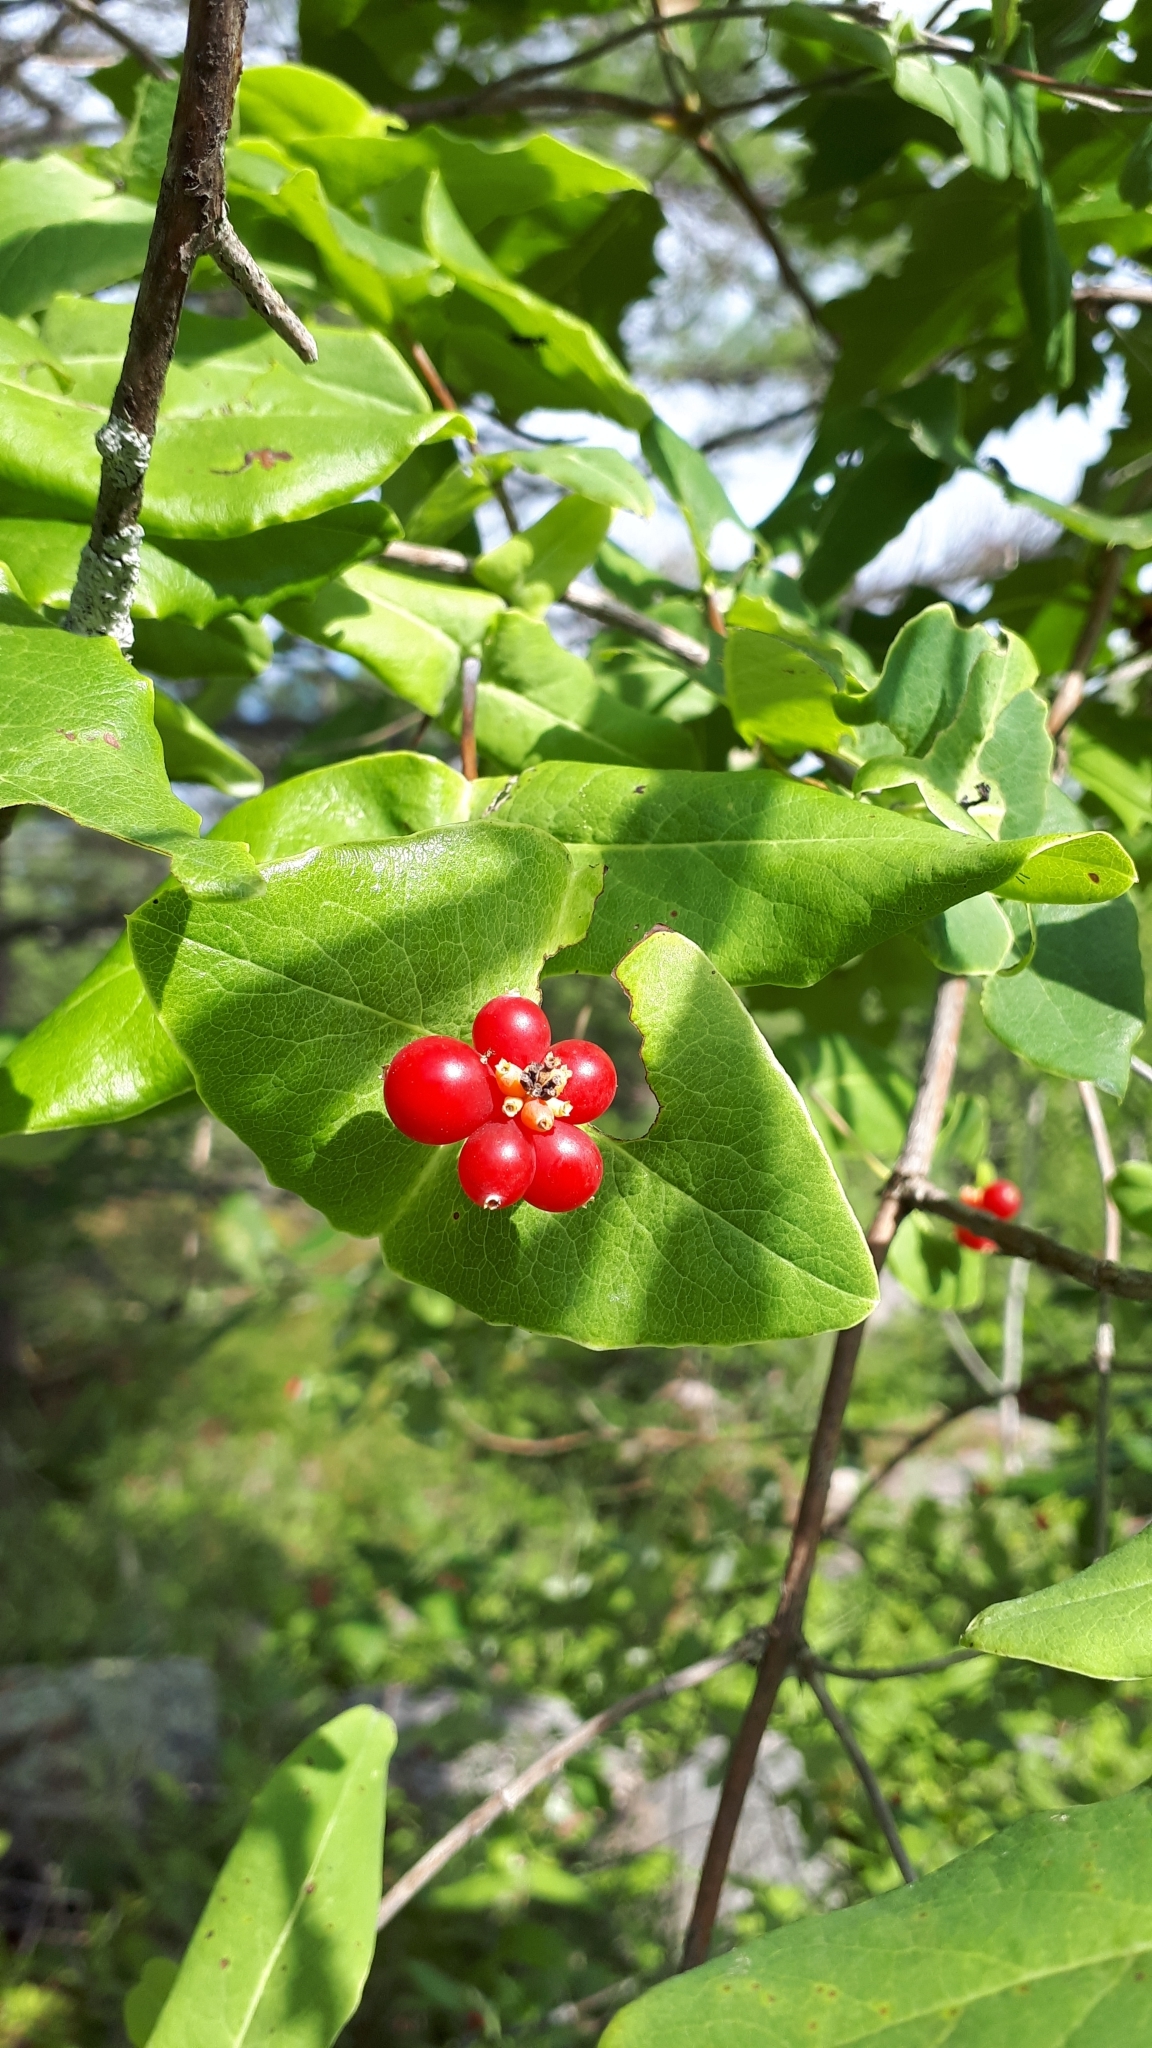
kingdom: Plantae
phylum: Tracheophyta
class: Magnoliopsida
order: Dipsacales
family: Caprifoliaceae
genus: Lonicera
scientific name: Lonicera dioica
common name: Limber honeysuckle
